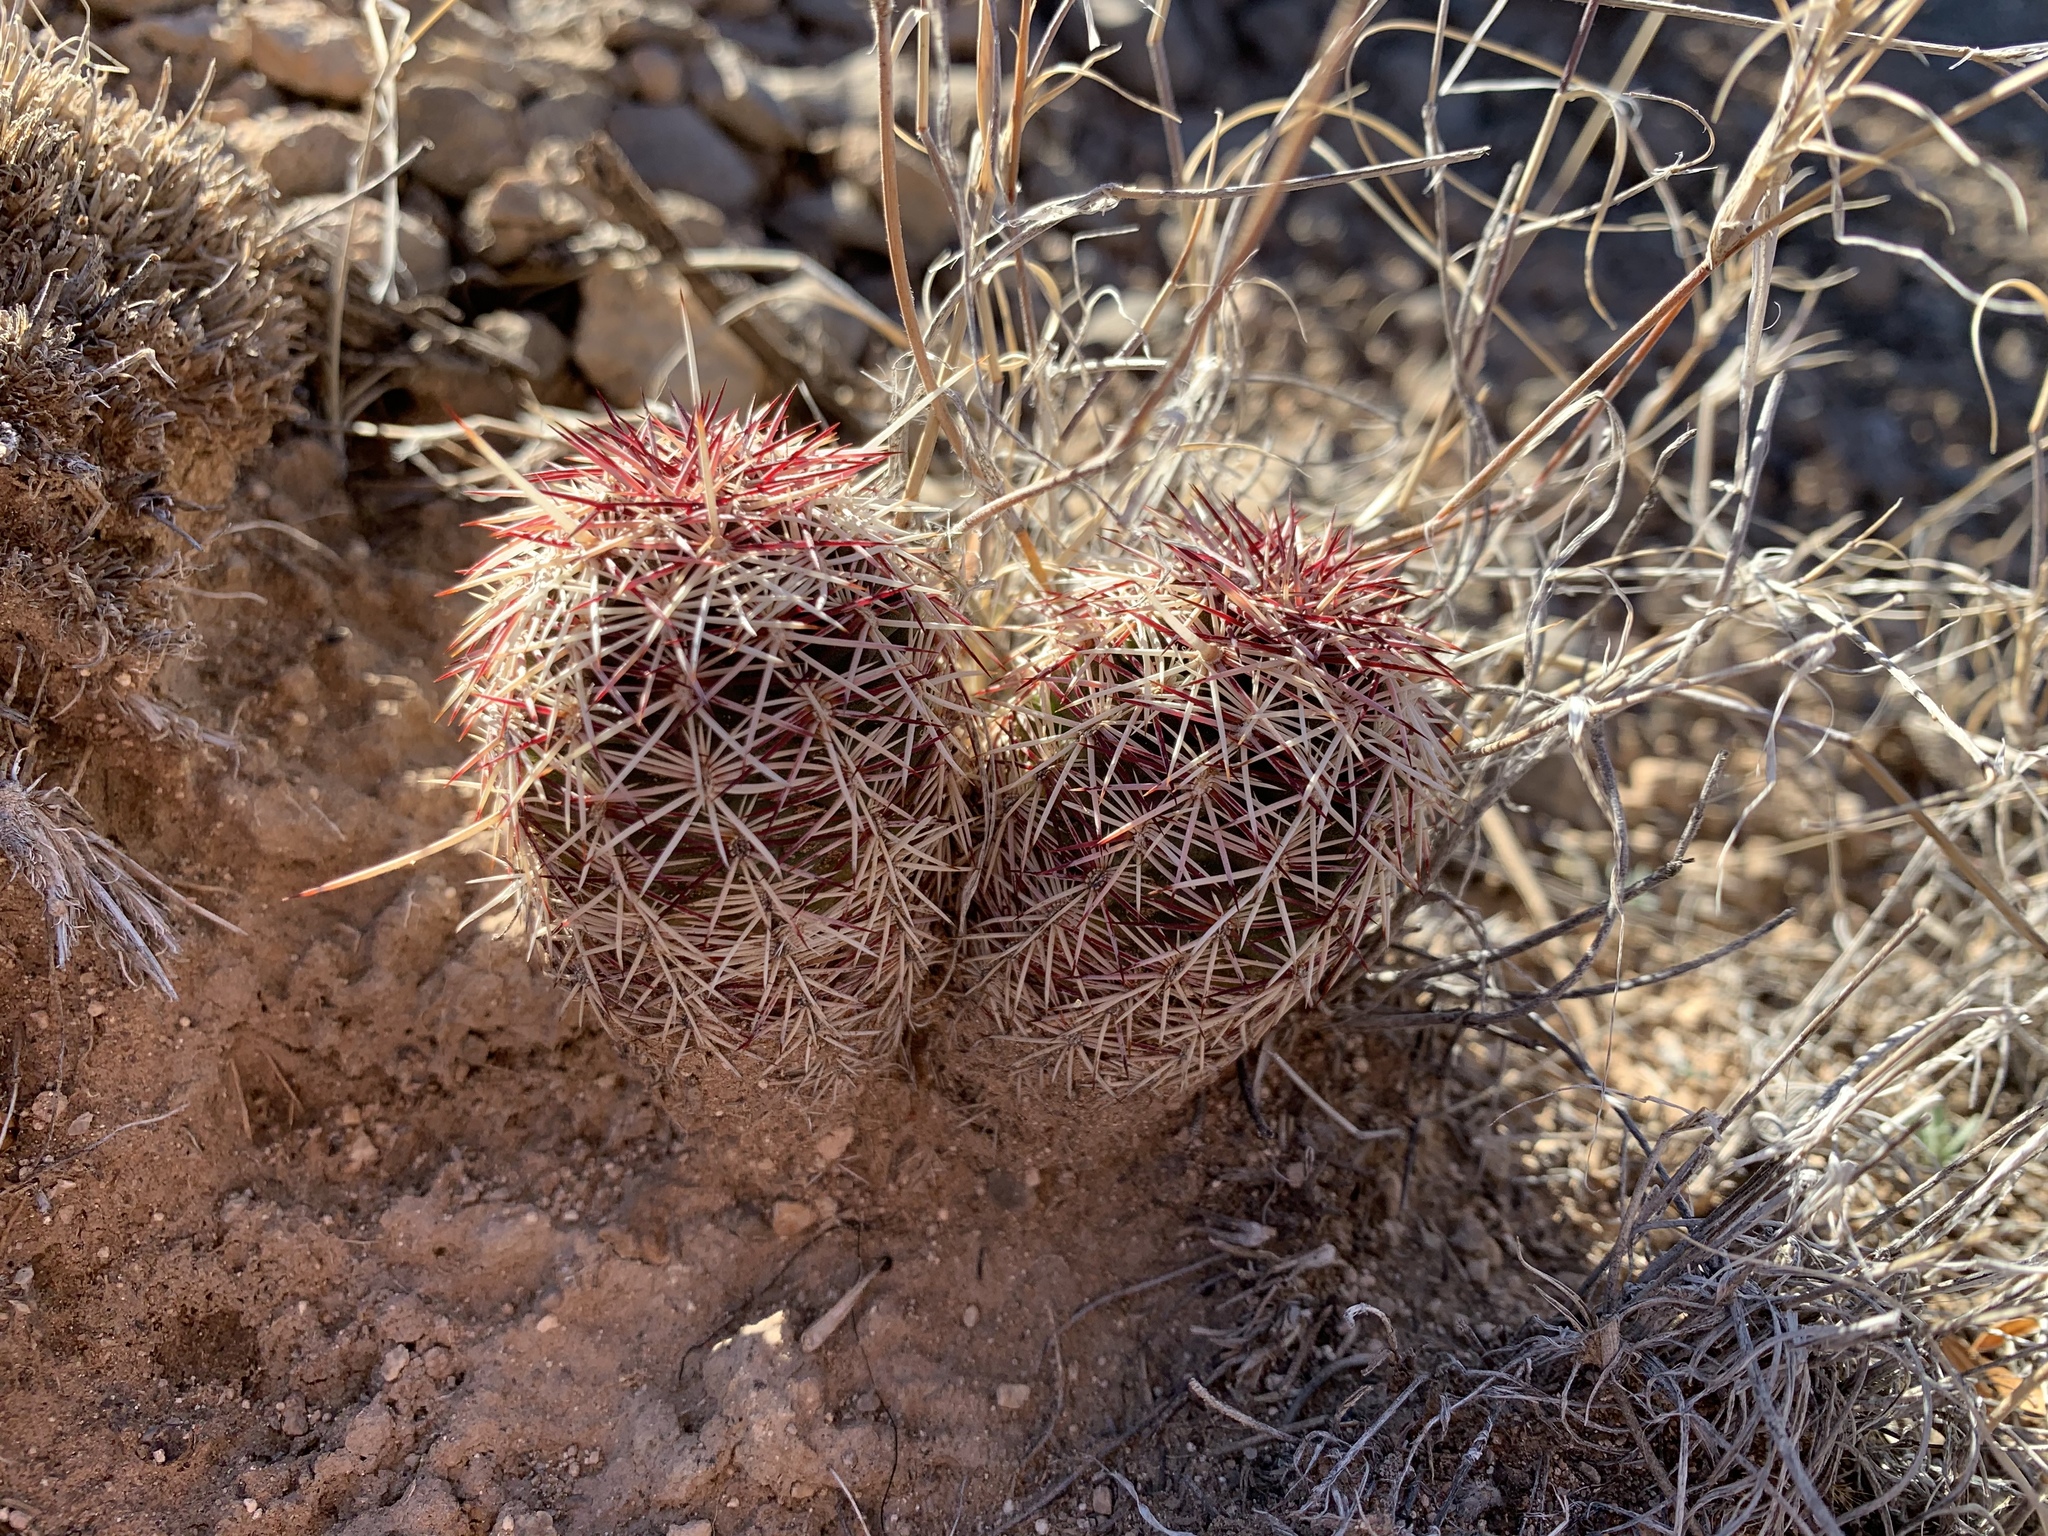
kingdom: Plantae
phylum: Tracheophyta
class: Magnoliopsida
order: Caryophyllales
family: Cactaceae
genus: Echinocereus
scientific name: Echinocereus viridiflorus
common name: Nylon hedgehog cactus
